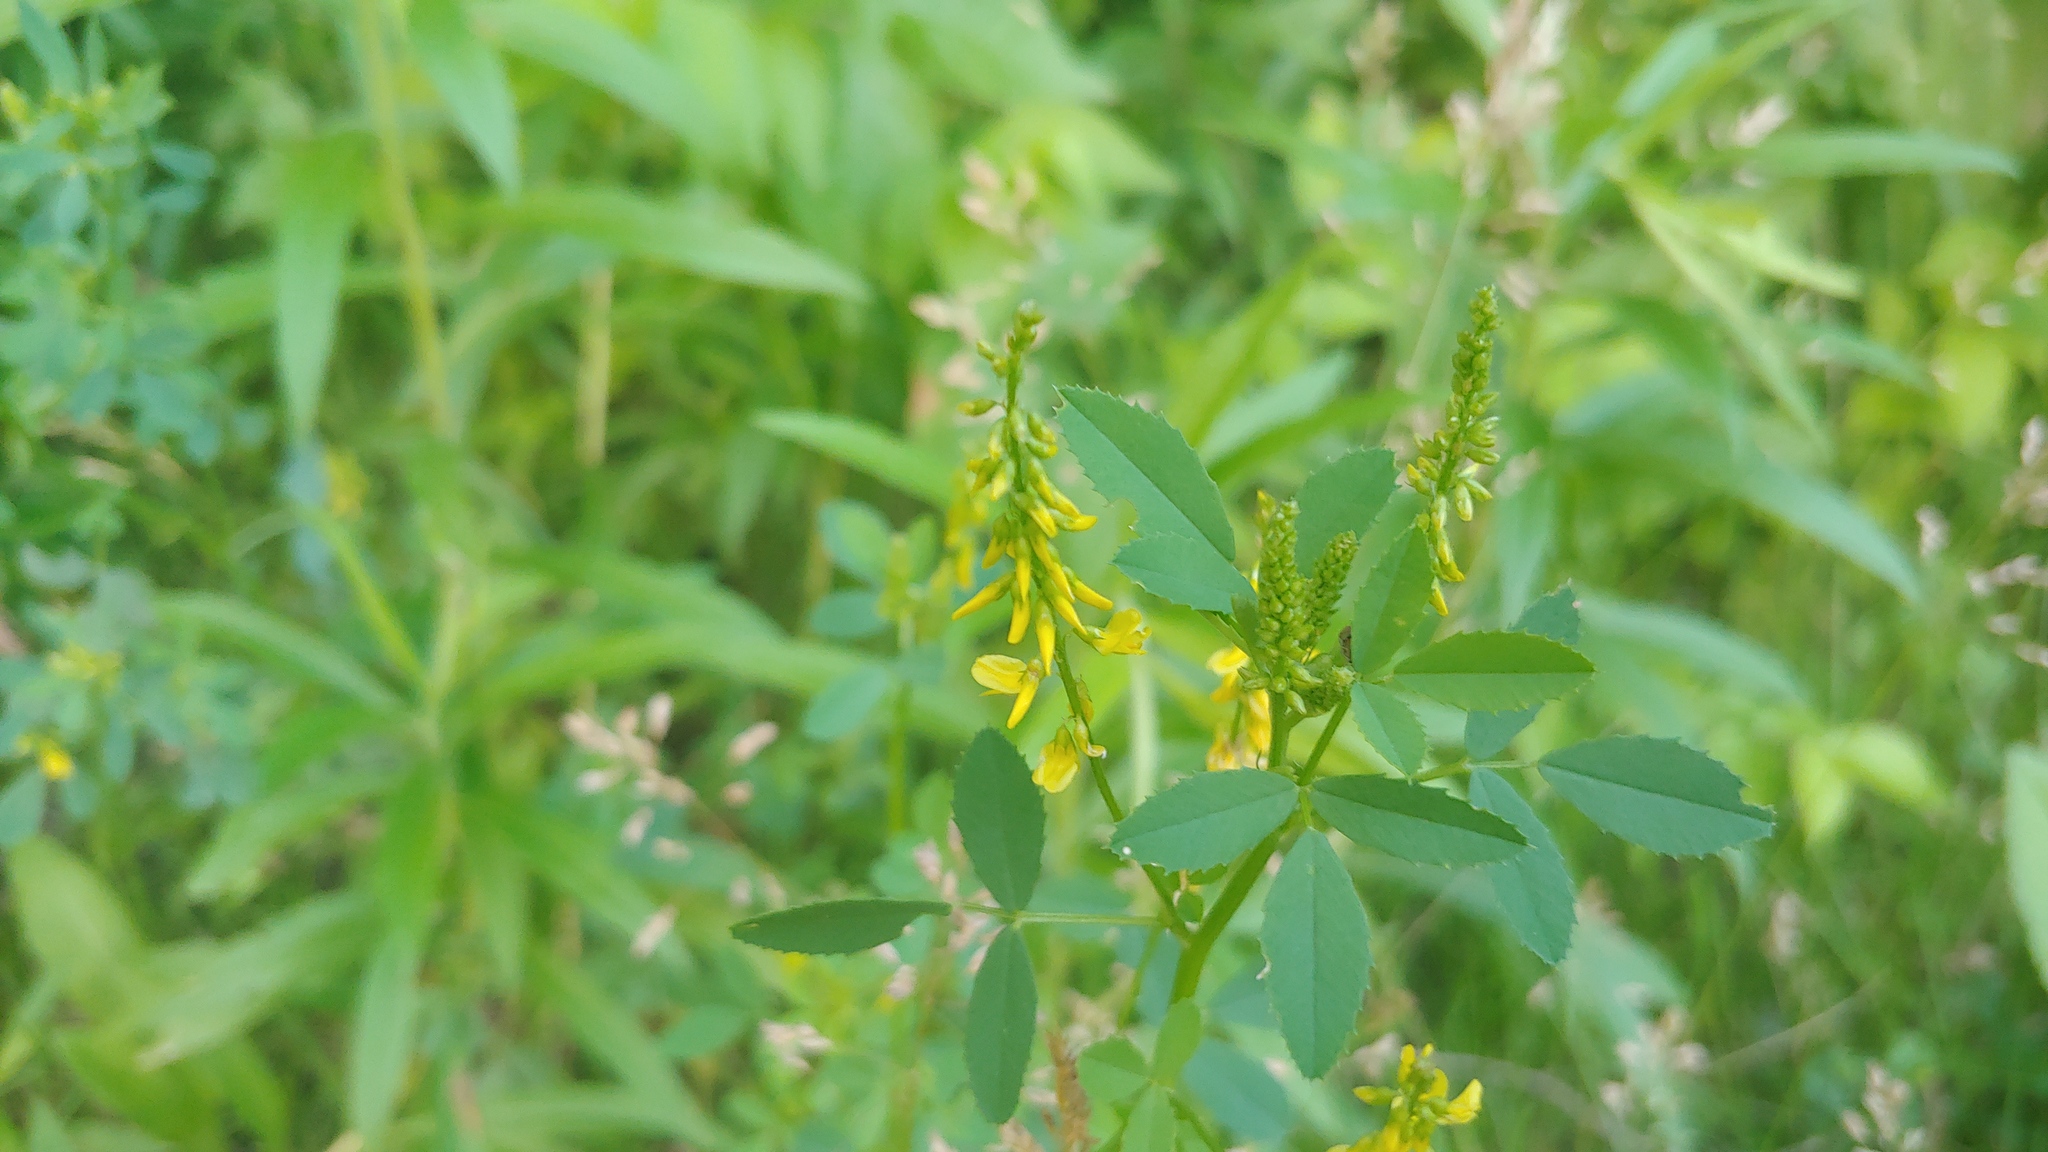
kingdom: Plantae
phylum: Tracheophyta
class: Magnoliopsida
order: Fabales
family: Fabaceae
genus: Melilotus
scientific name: Melilotus officinalis
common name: Sweetclover
